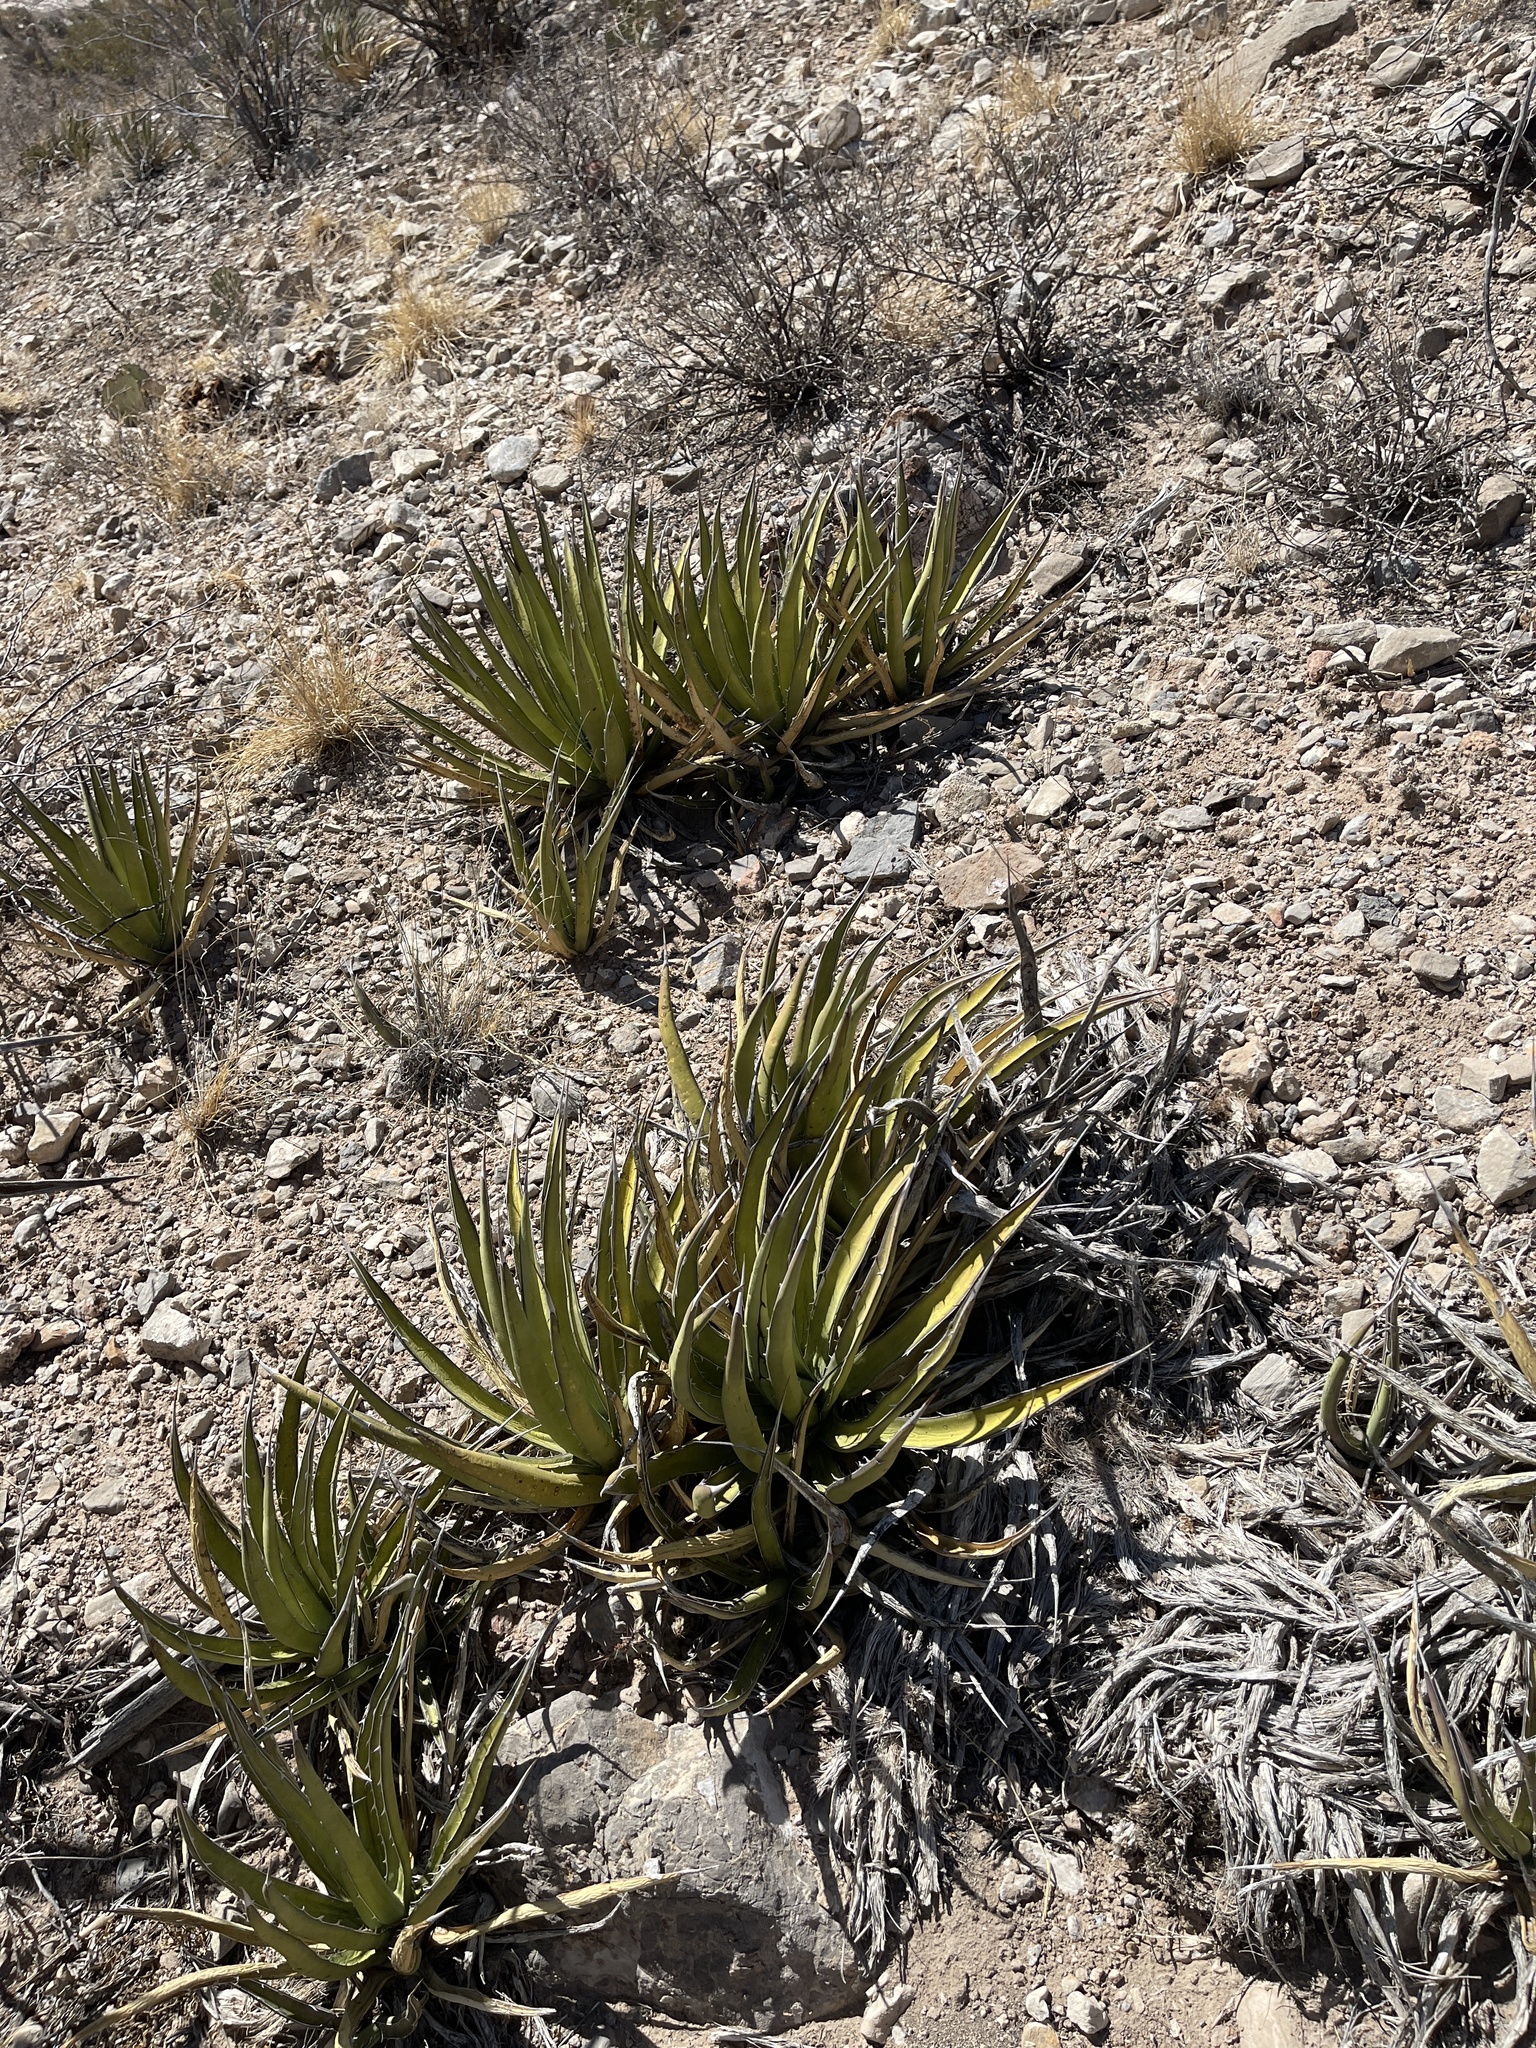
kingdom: Plantae
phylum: Tracheophyta
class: Liliopsida
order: Asparagales
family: Asparagaceae
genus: Agave
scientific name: Agave lechuguilla
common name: Lecheguilla agave
